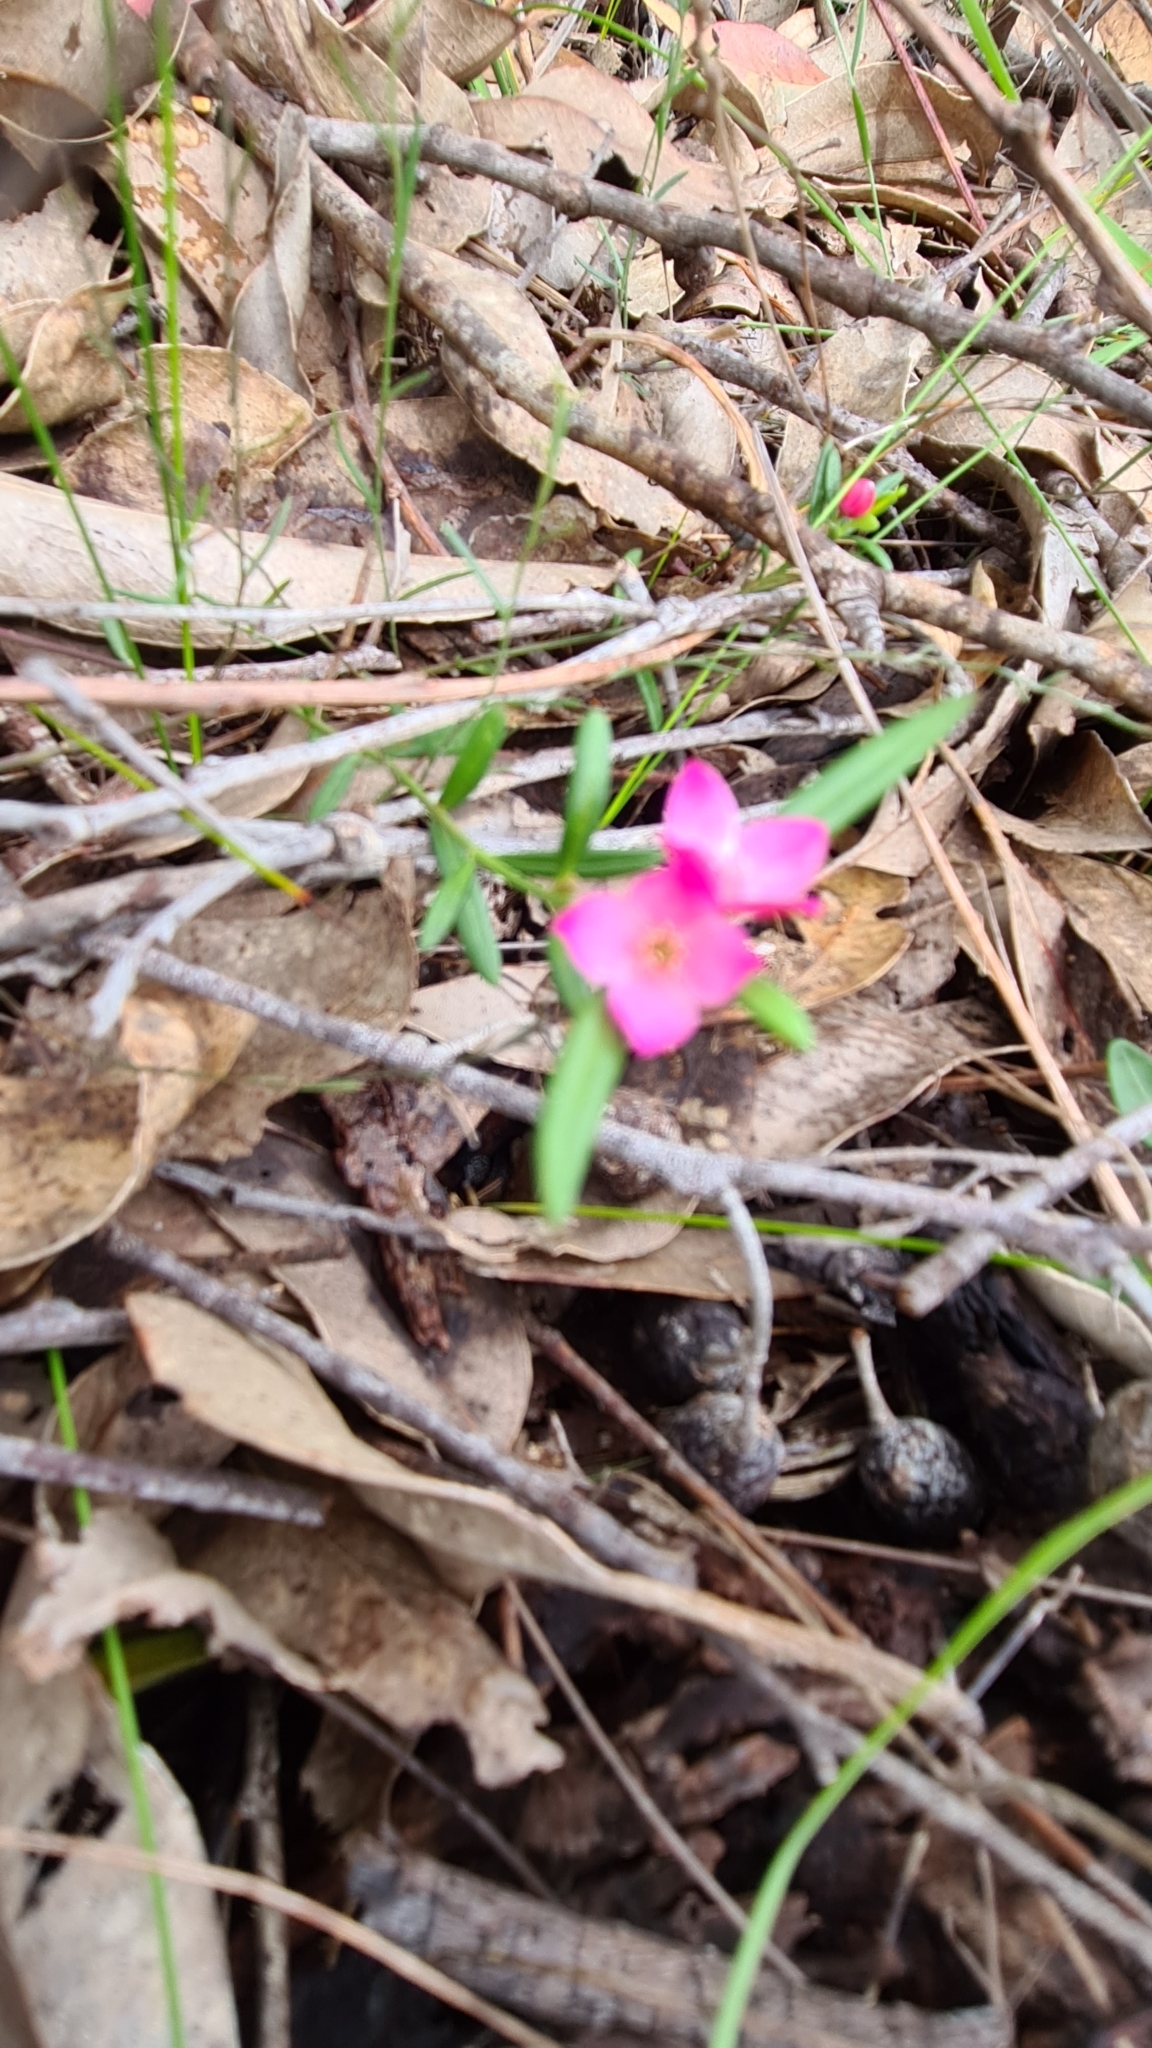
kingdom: Plantae
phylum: Tracheophyta
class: Magnoliopsida
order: Sapindales
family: Rutaceae
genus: Cyanothamnus
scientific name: Cyanothamnus polygalifolius
